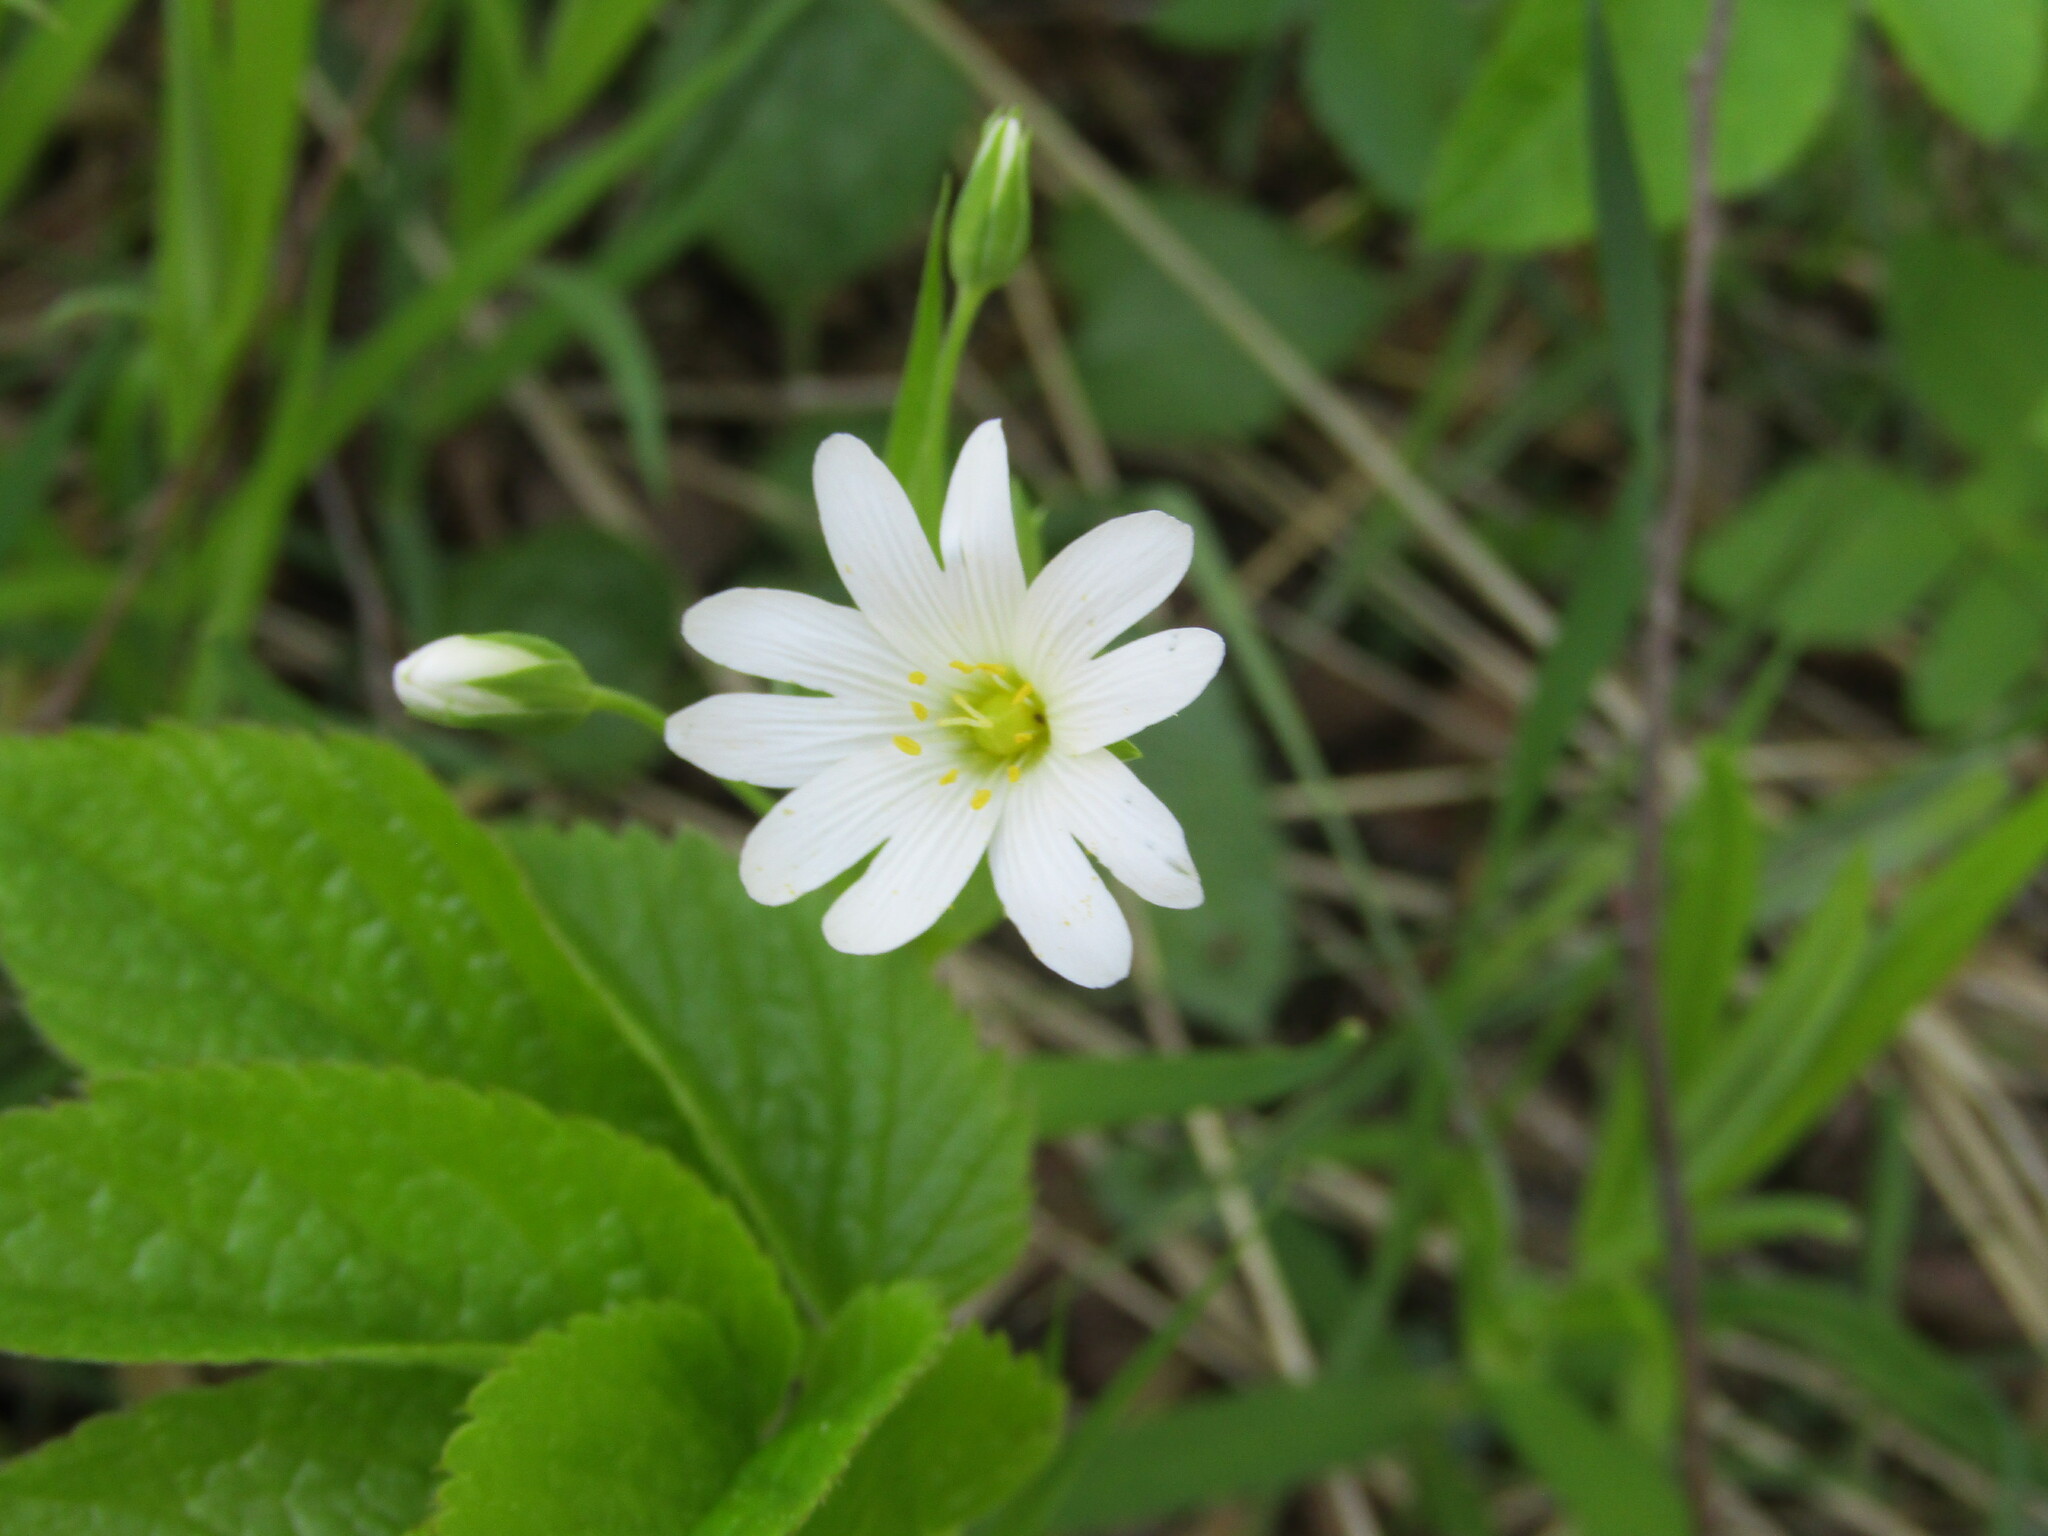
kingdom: Plantae
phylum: Tracheophyta
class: Magnoliopsida
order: Caryophyllales
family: Caryophyllaceae
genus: Rabelera
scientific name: Rabelera holostea
